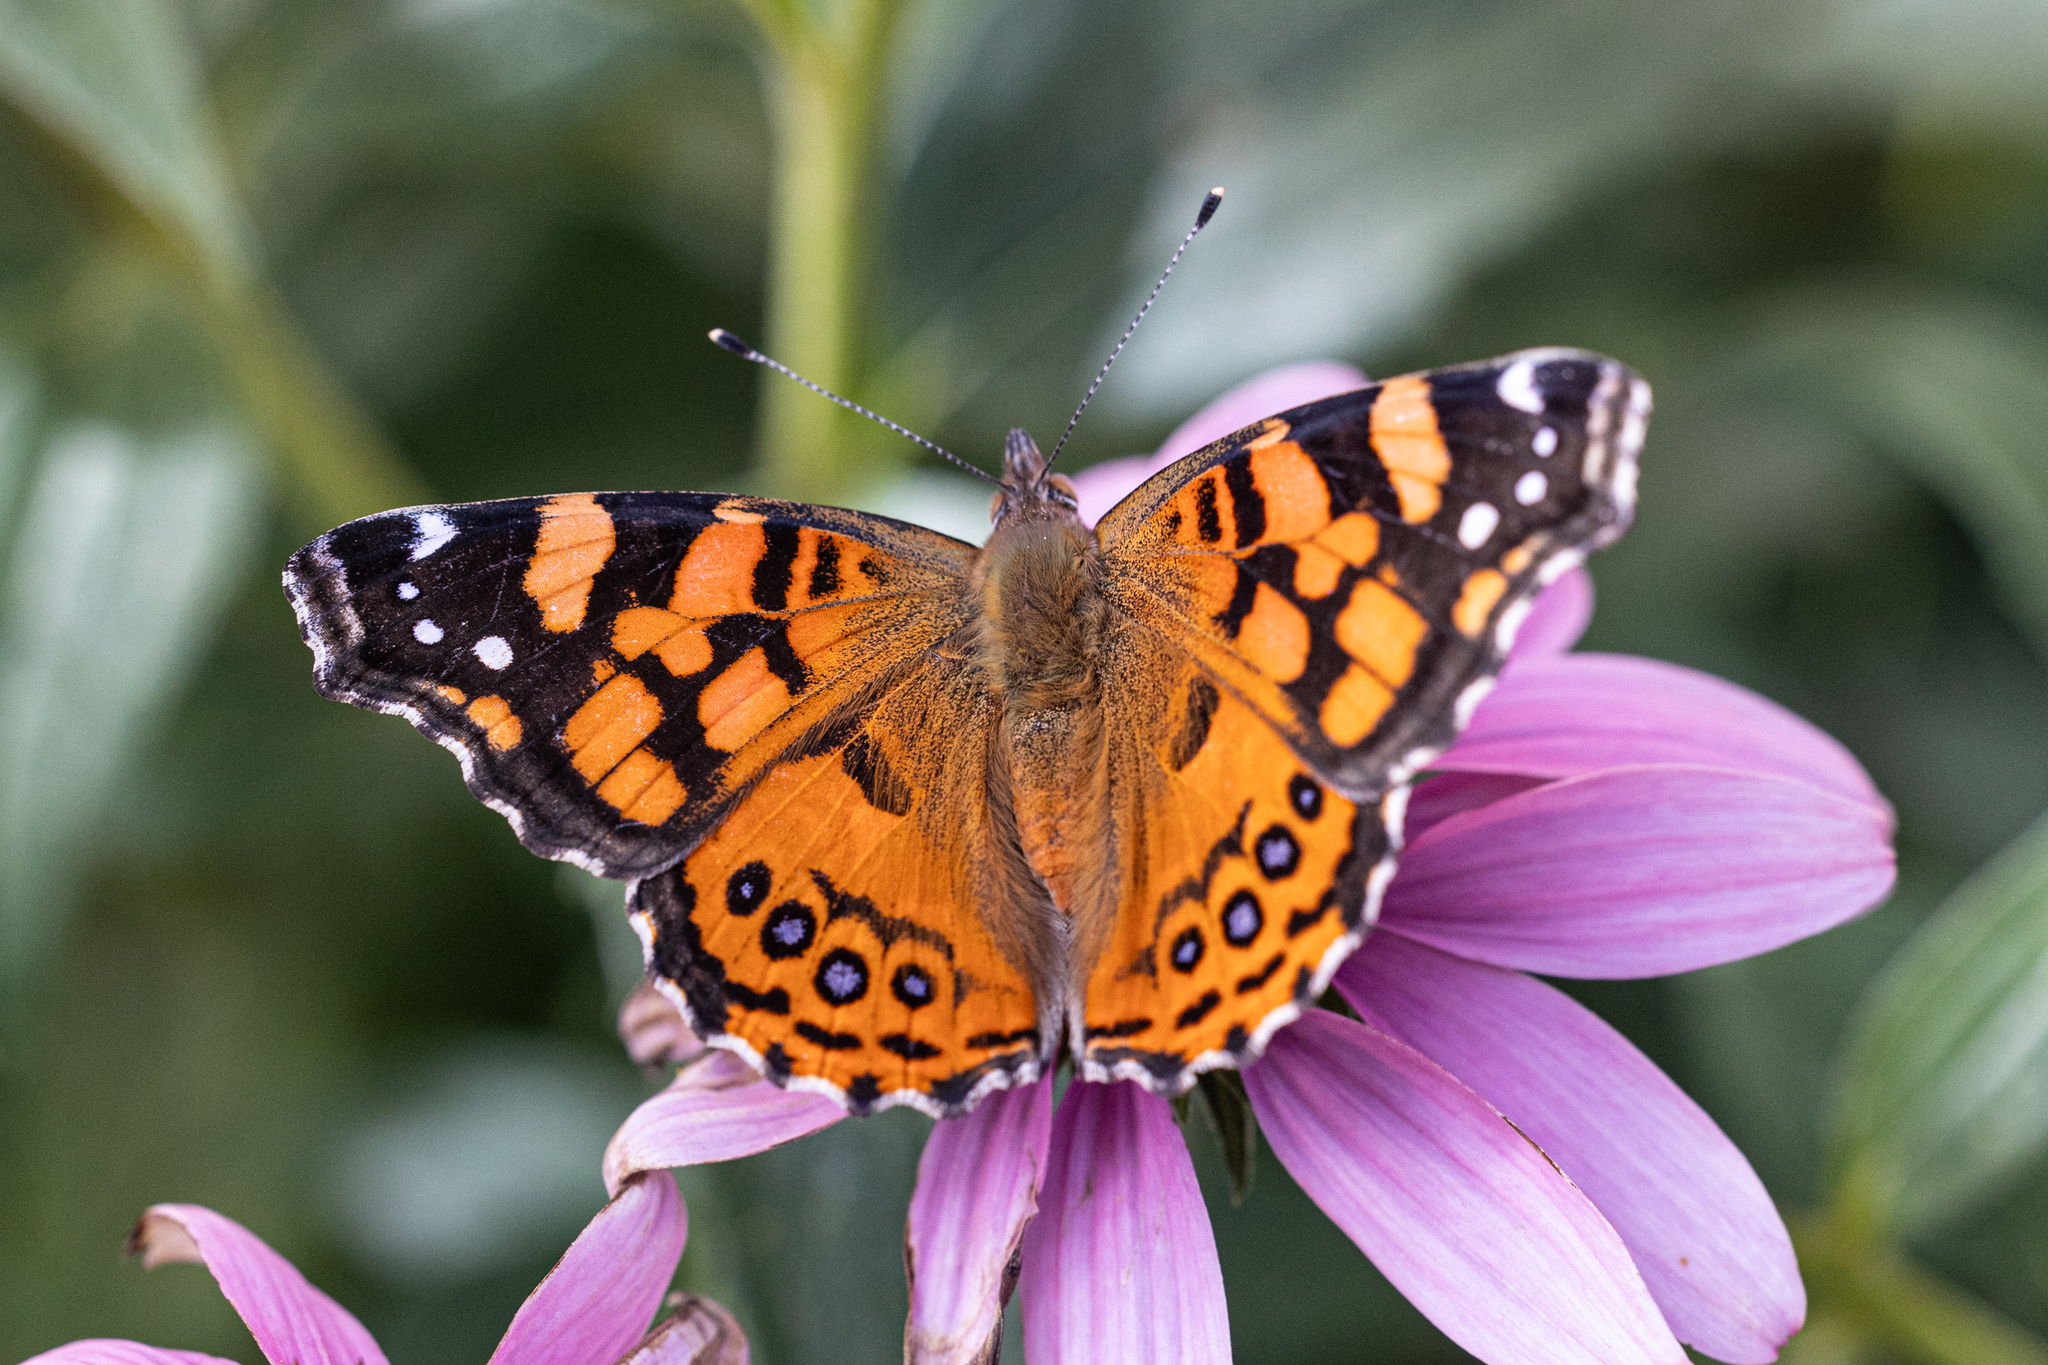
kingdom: Animalia
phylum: Arthropoda
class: Insecta
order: Lepidoptera
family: Nymphalidae
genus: Vanessa
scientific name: Vanessa annabella
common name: West coast lady
